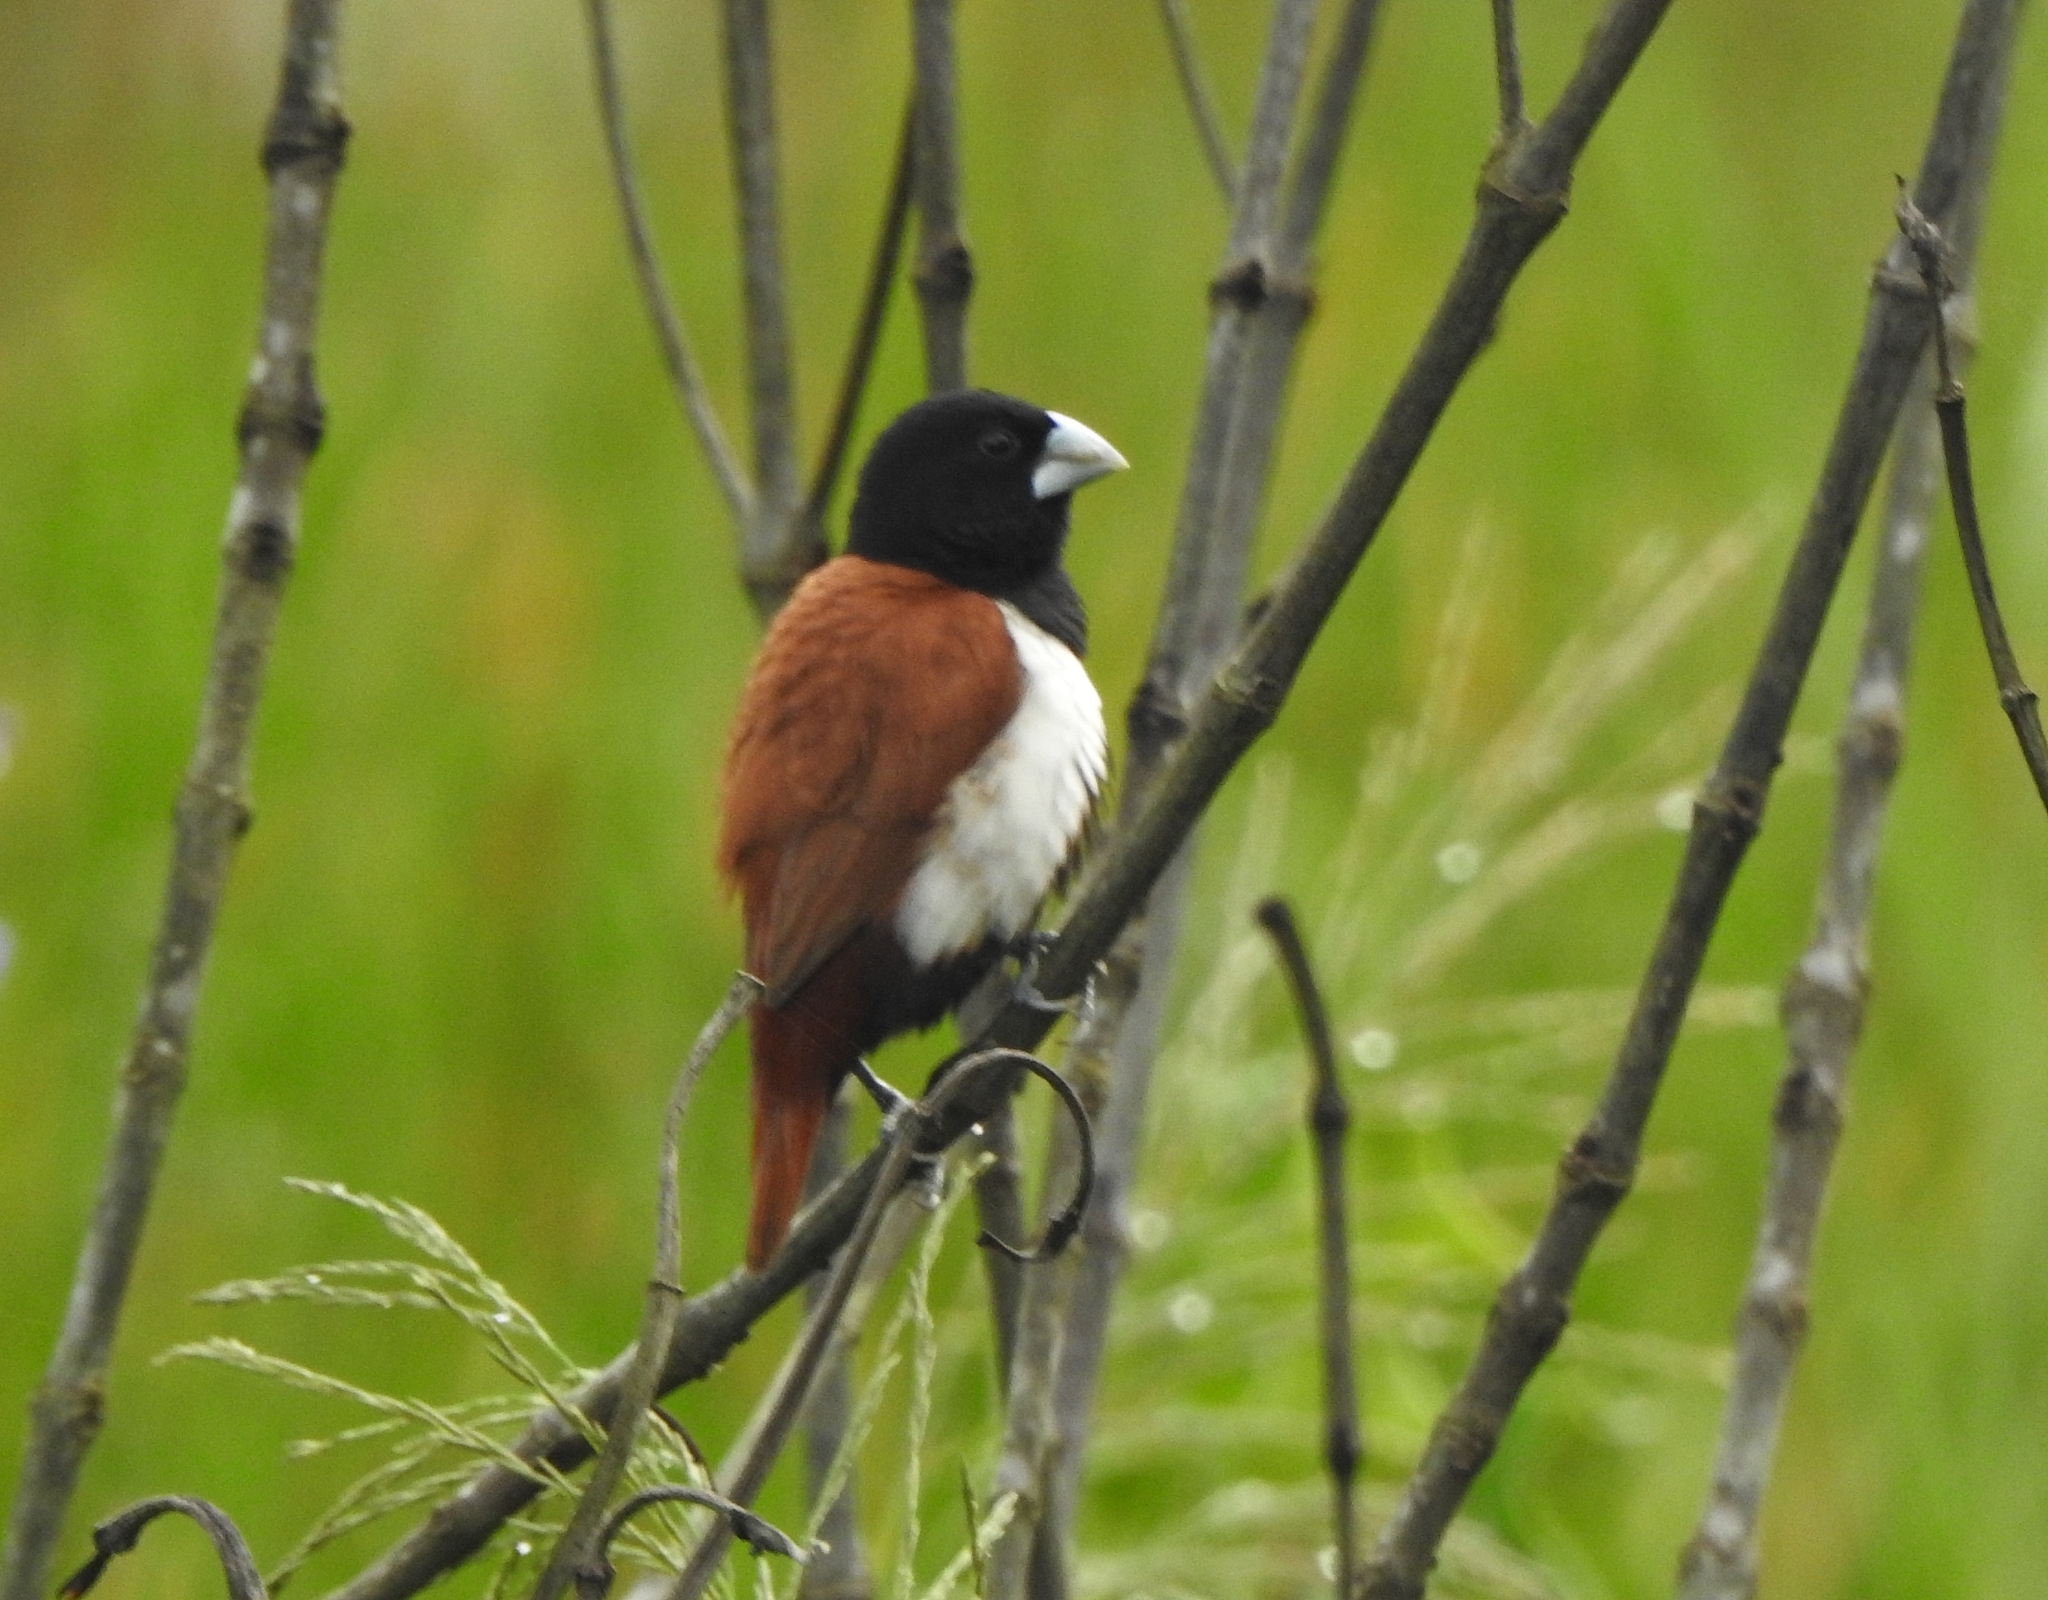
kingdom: Animalia
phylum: Chordata
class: Aves
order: Passeriformes
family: Estrildidae
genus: Lonchura
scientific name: Lonchura malacca
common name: Tricolored munia
